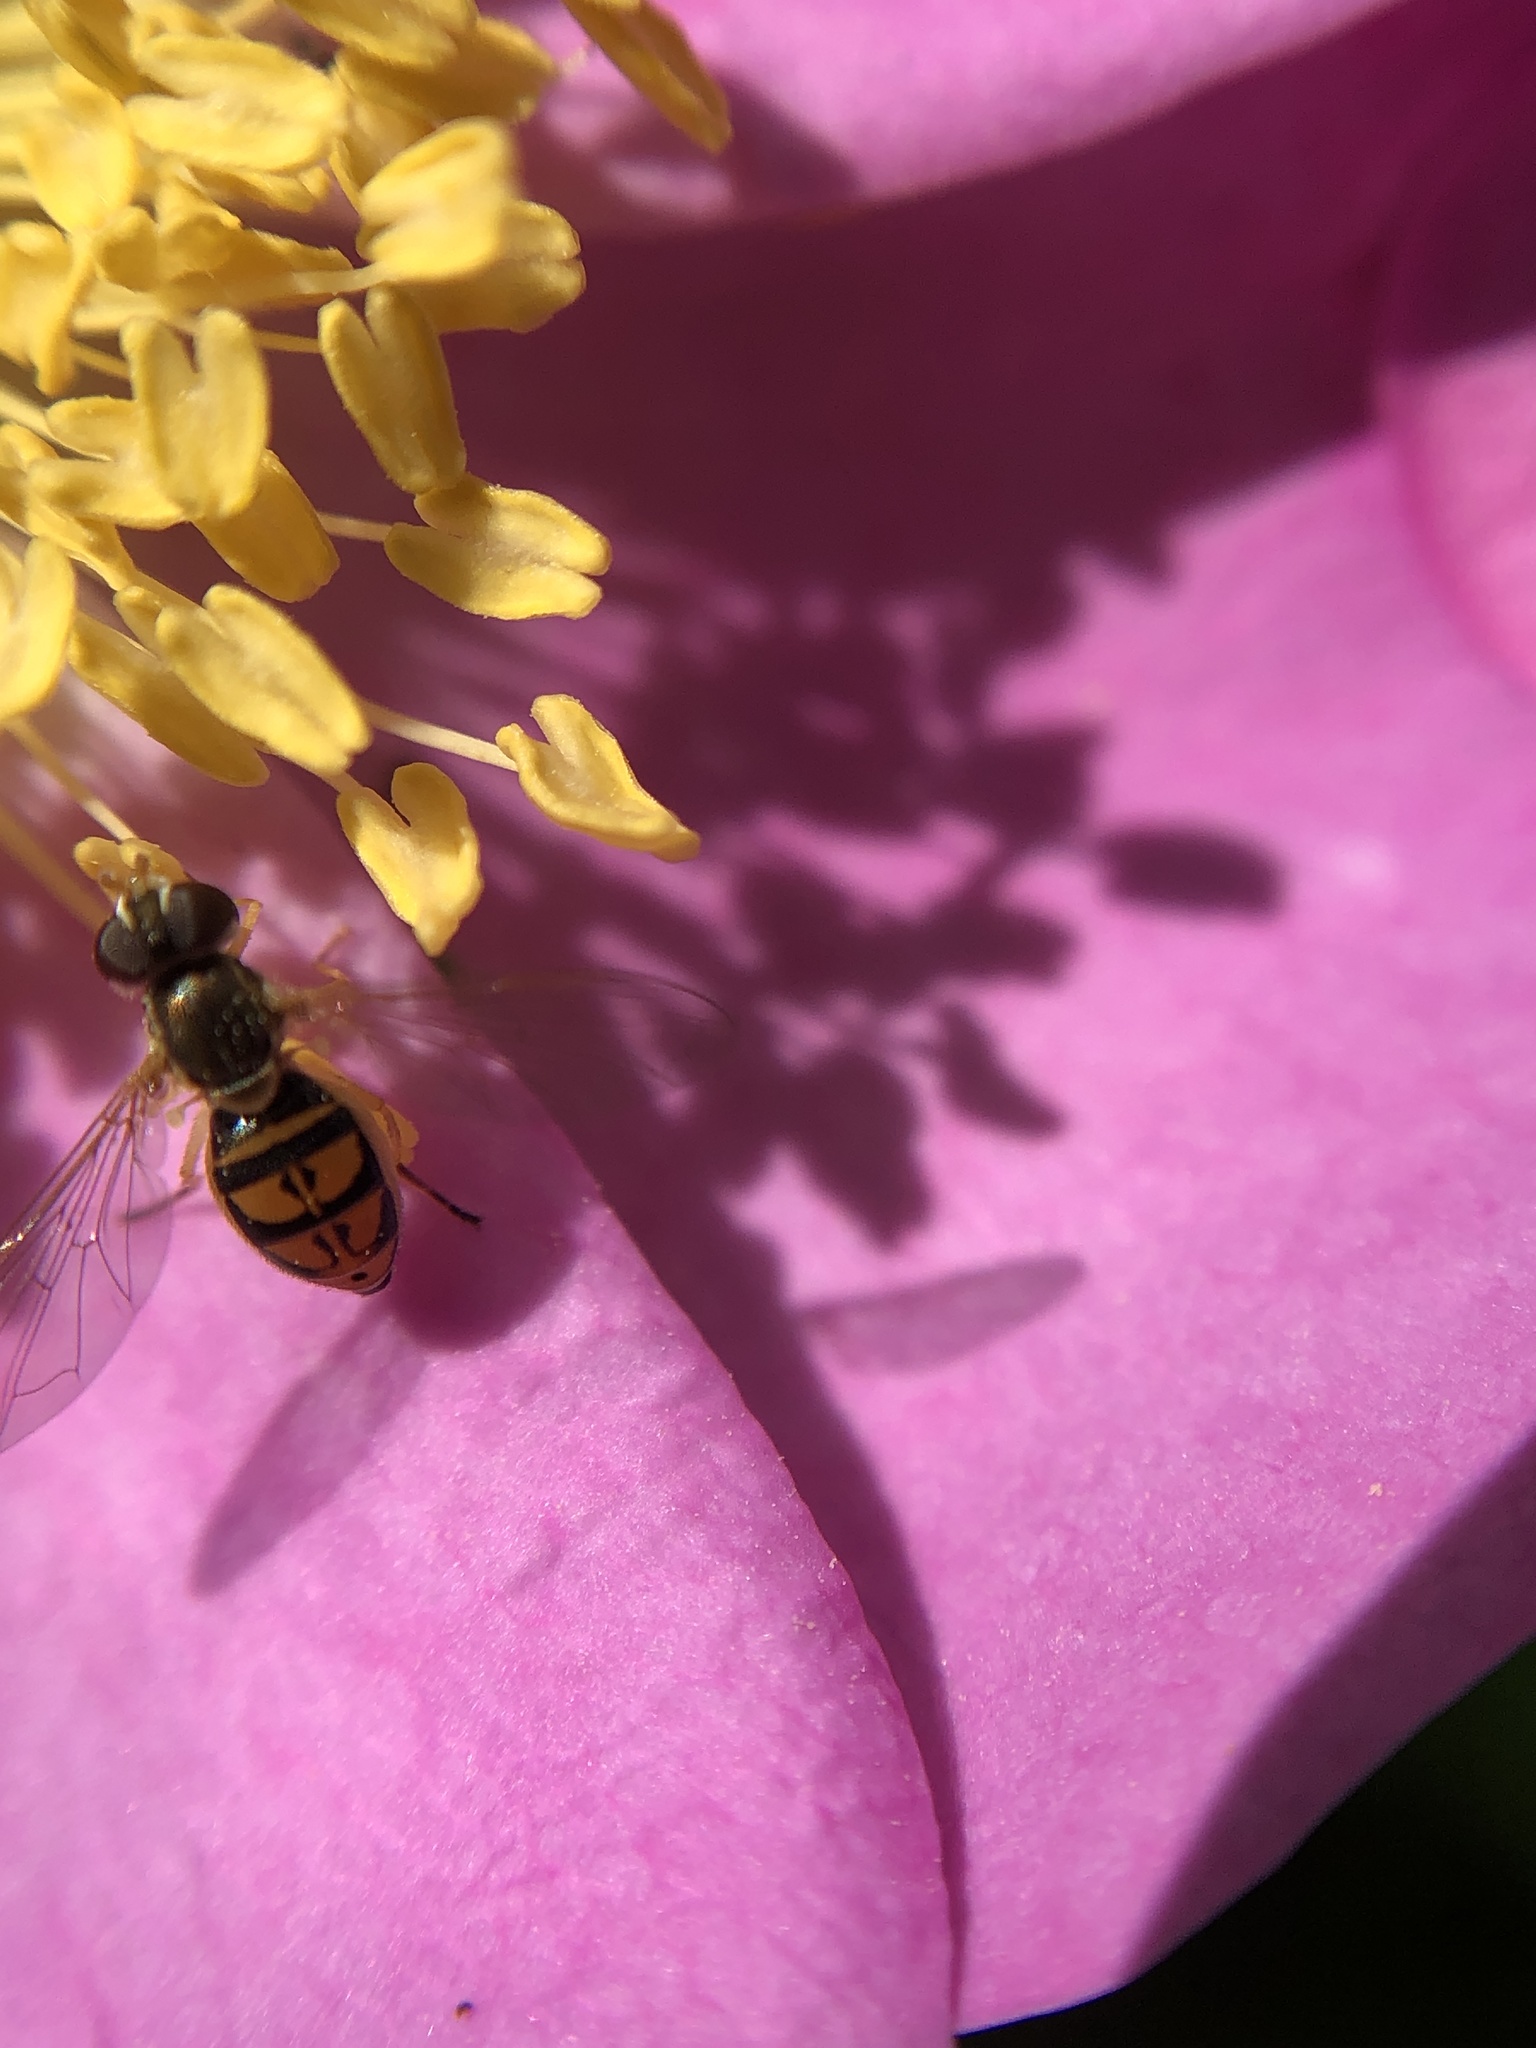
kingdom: Animalia
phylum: Arthropoda
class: Insecta
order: Diptera
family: Syrphidae
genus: Toxomerus
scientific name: Toxomerus marginatus
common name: Syrphid fly
